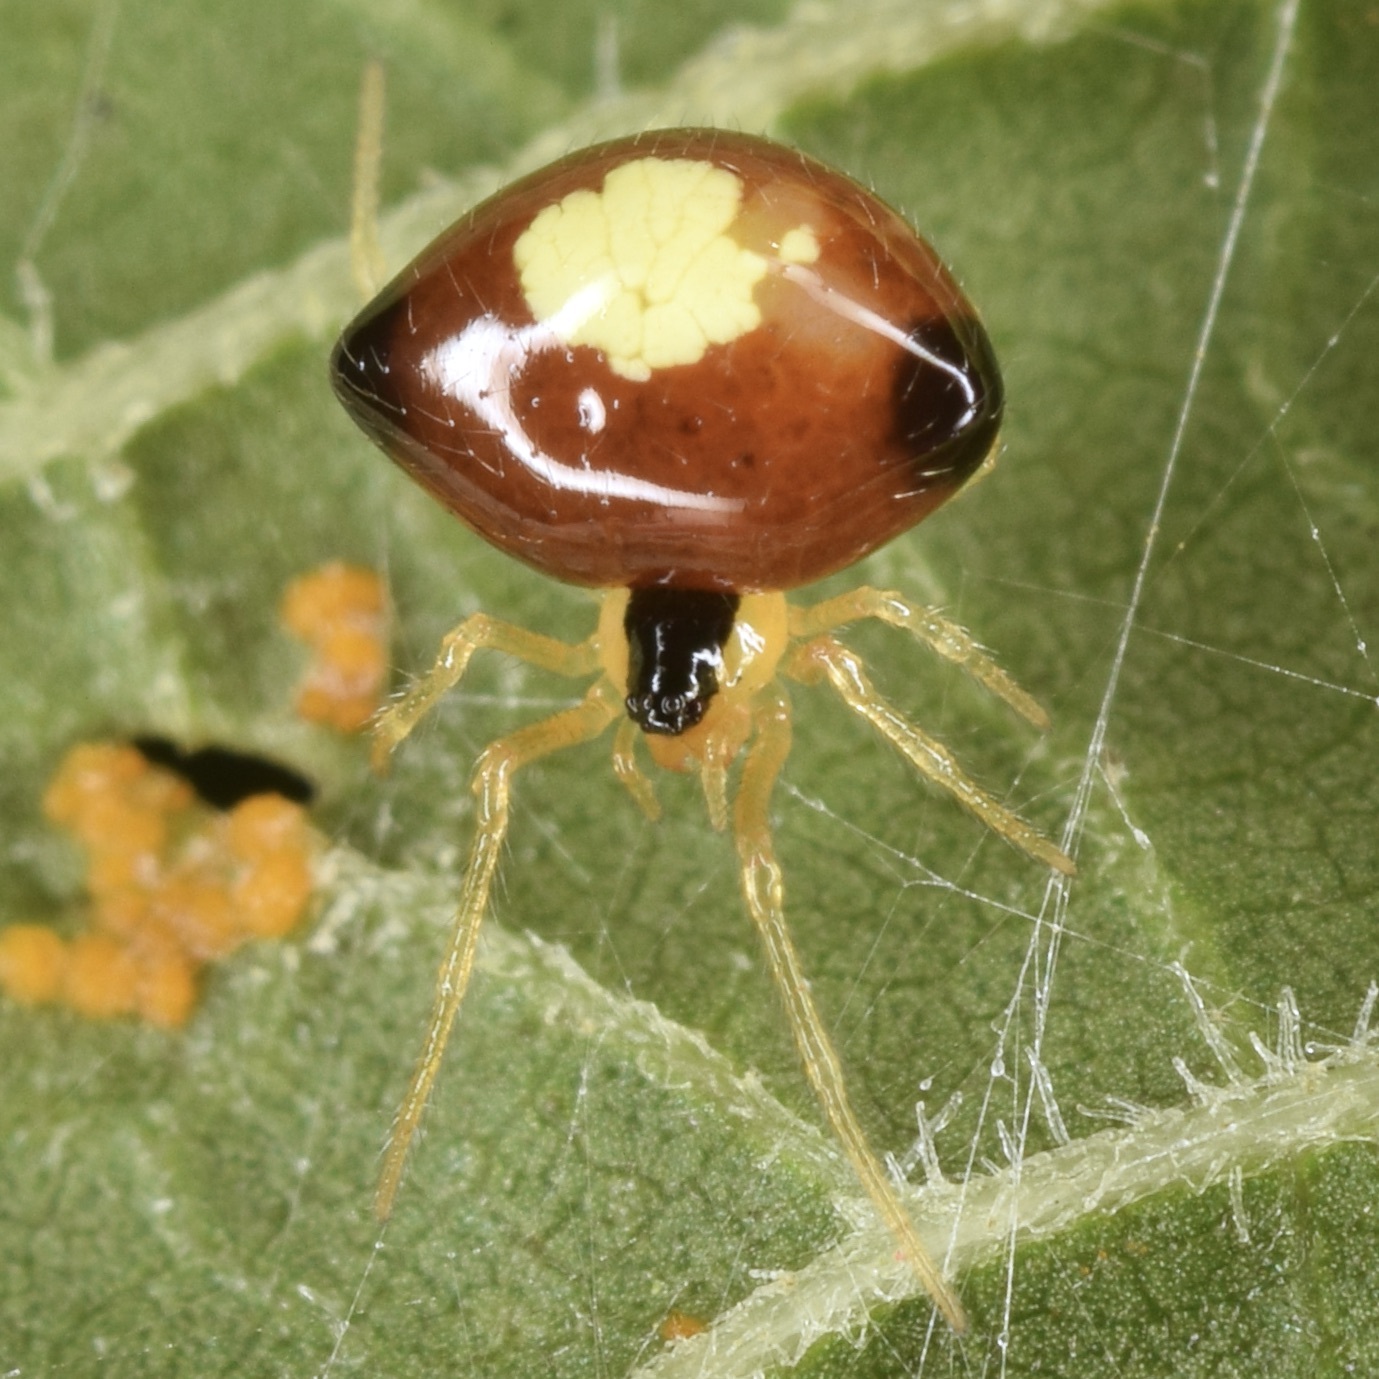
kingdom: Animalia
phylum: Arthropoda
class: Arachnida
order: Araneae
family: Theridiidae
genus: Theridula
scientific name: Theridula emertoni
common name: Emerton's bitubercled cobweaver
